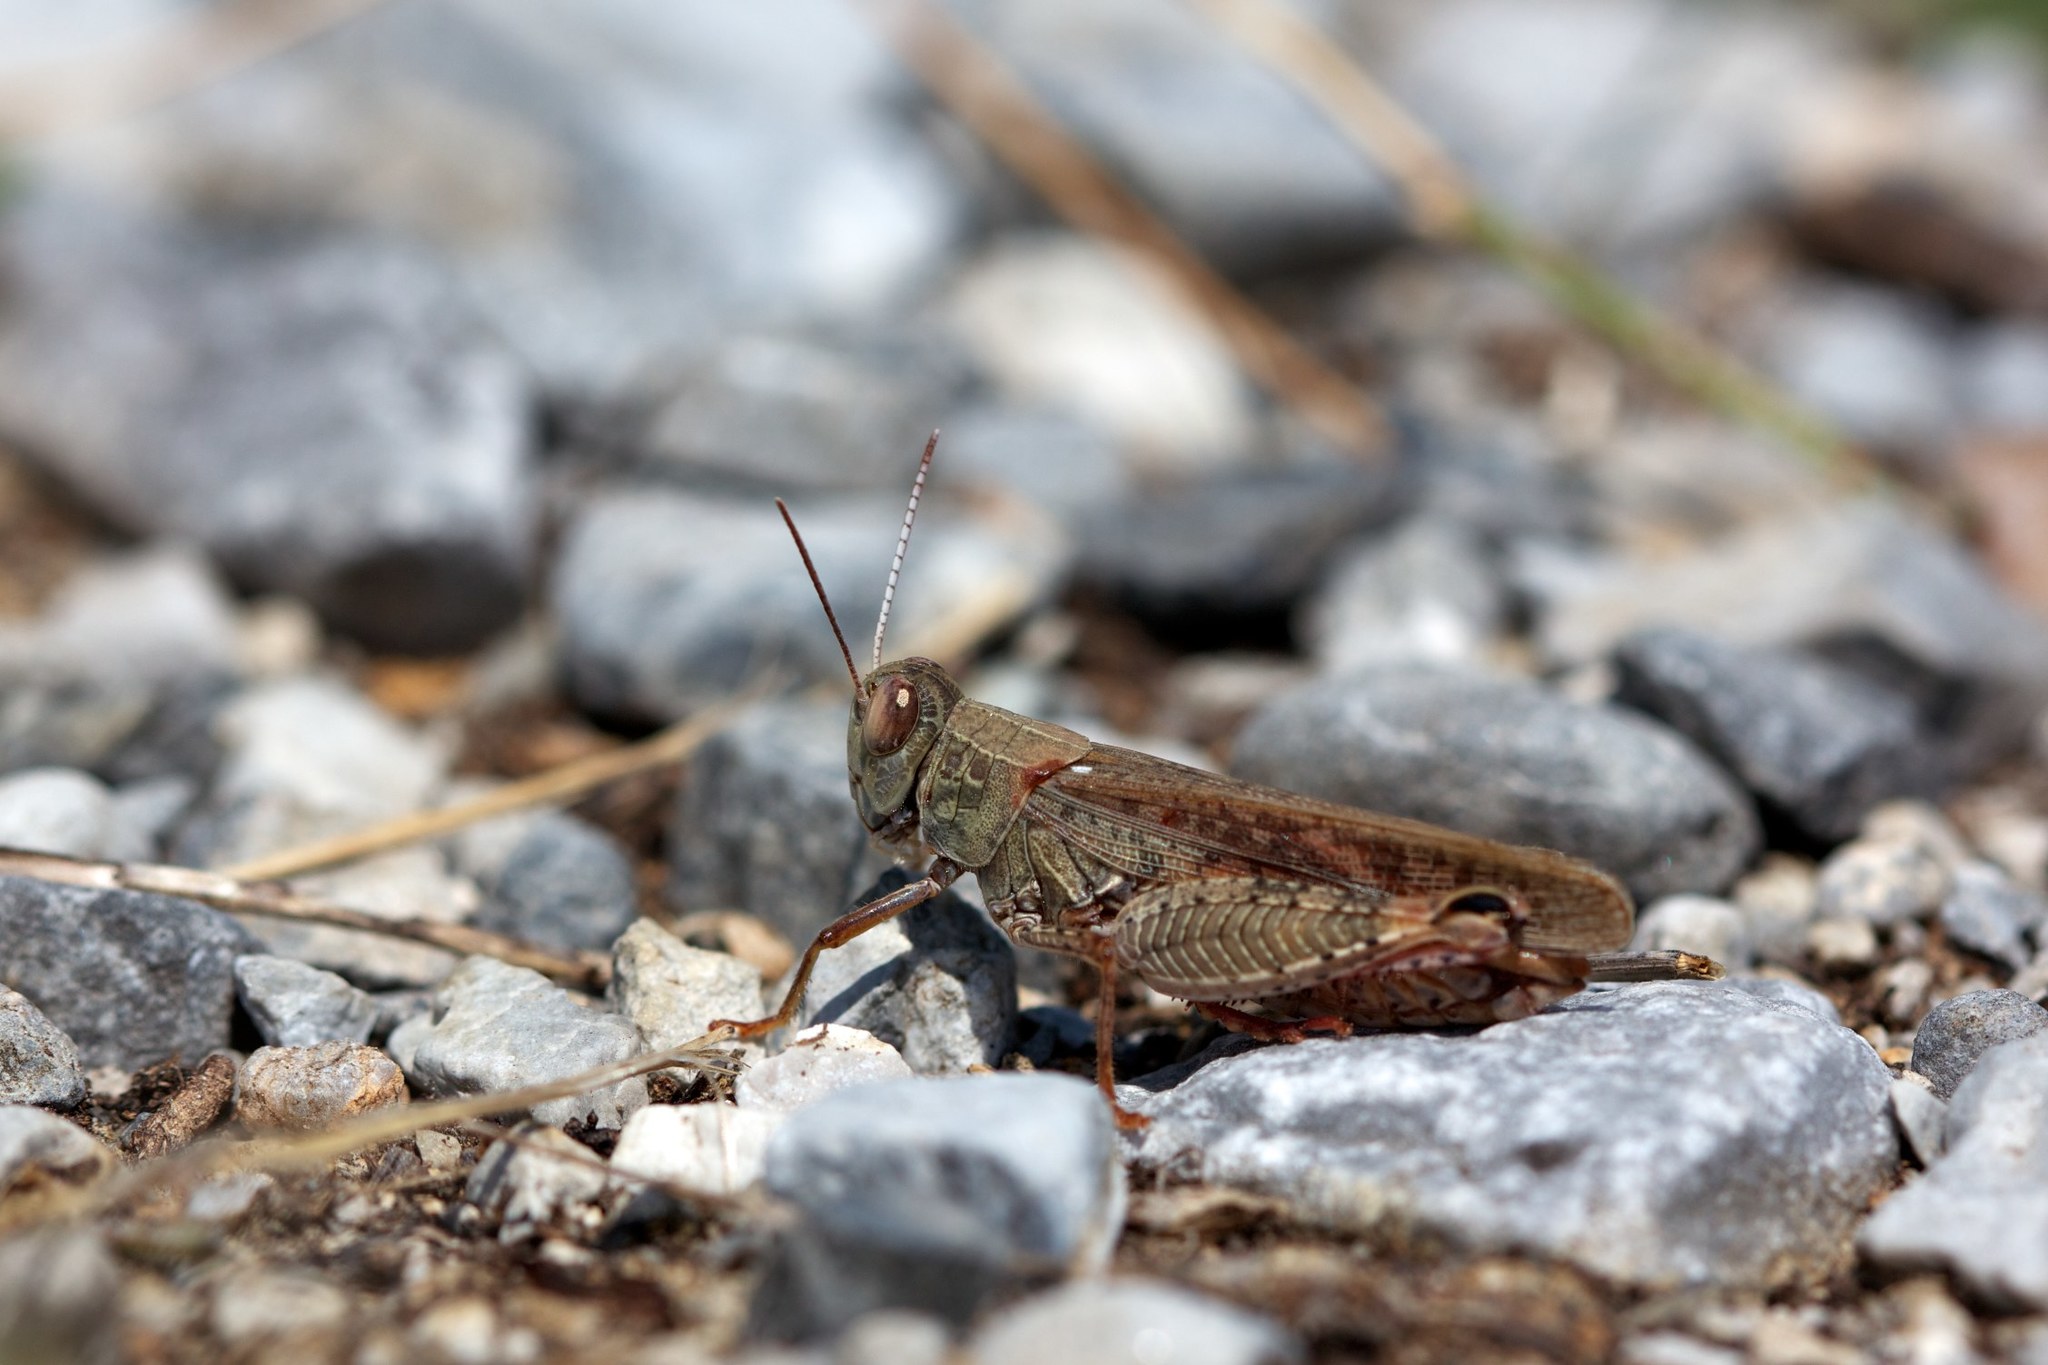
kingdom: Animalia
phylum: Arthropoda
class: Insecta
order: Orthoptera
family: Acrididae
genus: Calliptamus
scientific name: Calliptamus italicus
